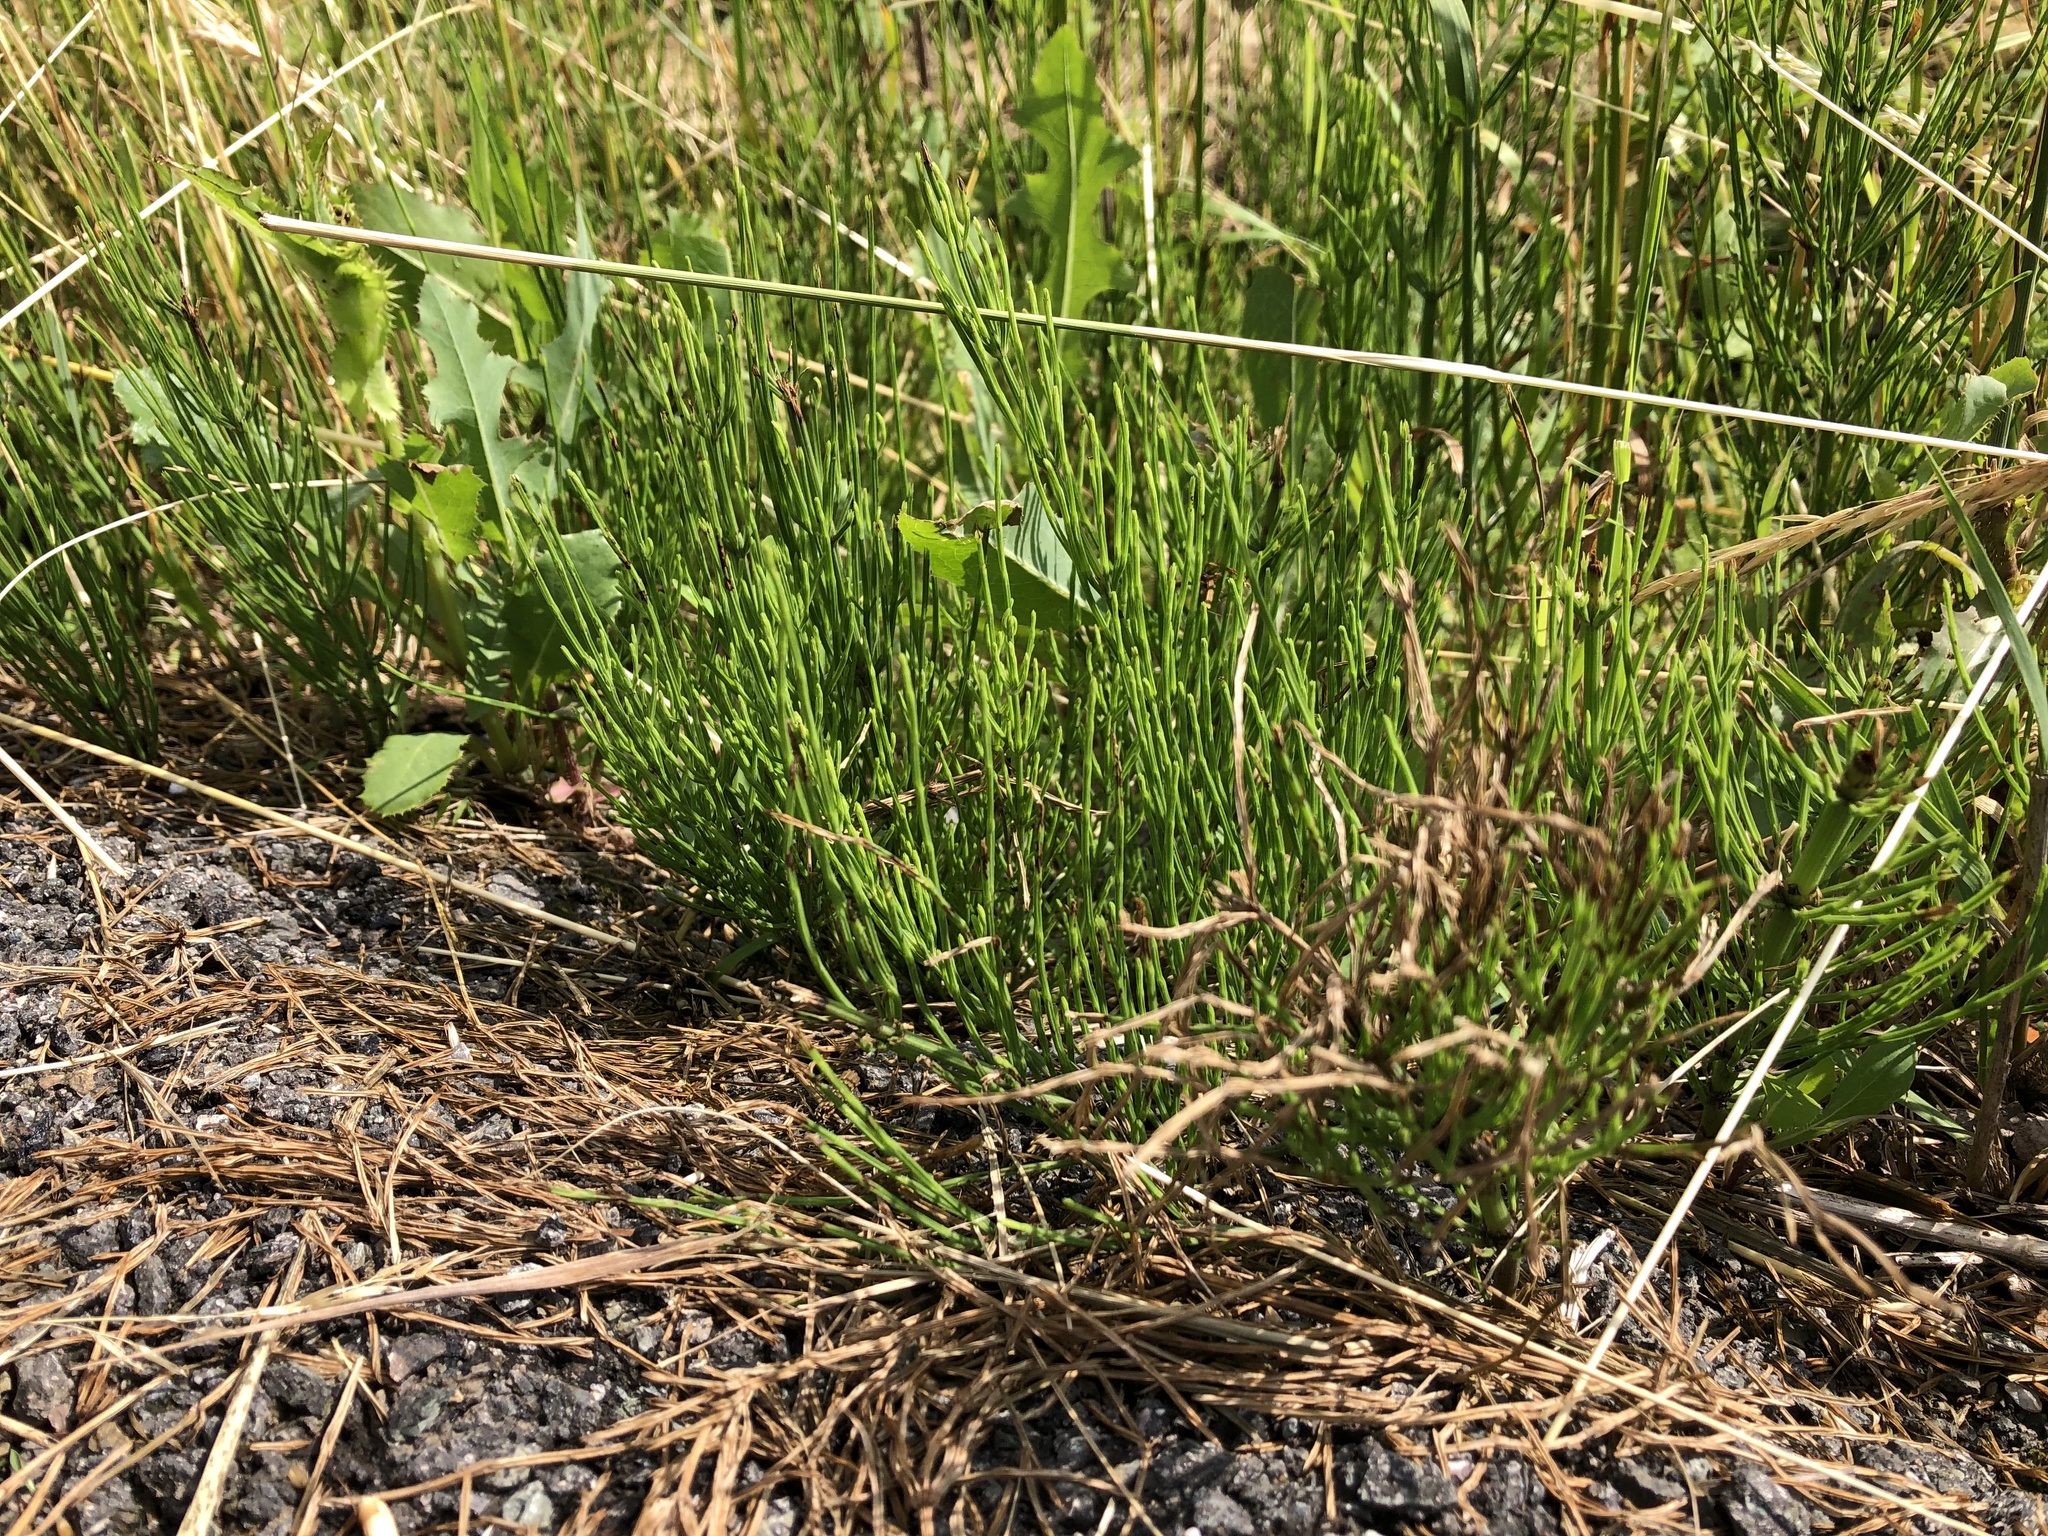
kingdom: Plantae
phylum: Tracheophyta
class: Polypodiopsida
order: Equisetales
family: Equisetaceae
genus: Equisetum
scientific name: Equisetum arvense
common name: Field horsetail
